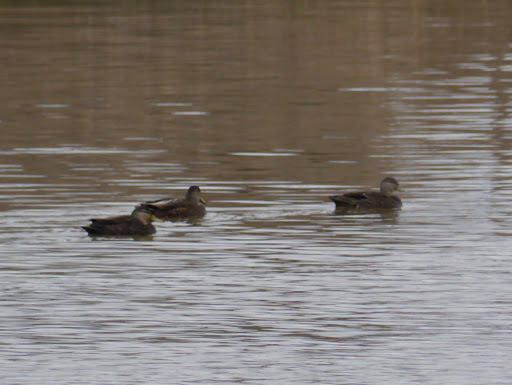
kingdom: Animalia
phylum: Chordata
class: Aves
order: Anseriformes
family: Anatidae
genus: Anas
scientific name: Anas rubripes
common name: American black duck
